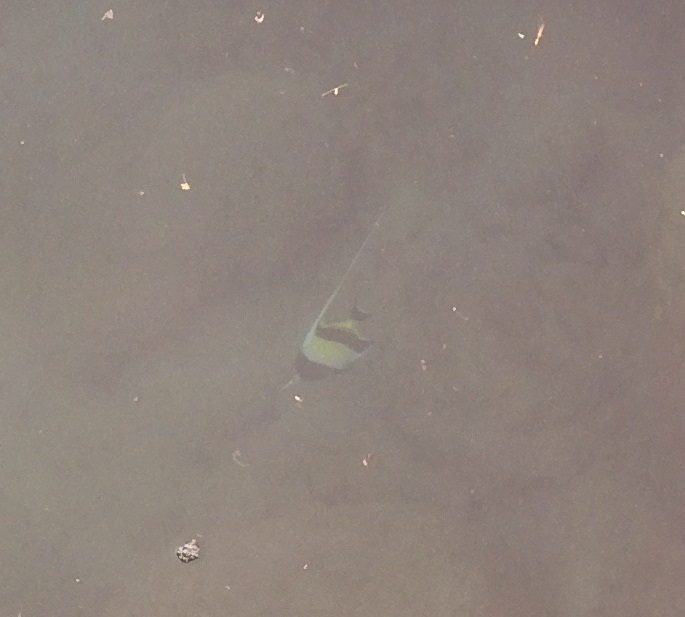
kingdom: Animalia
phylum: Chordata
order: Perciformes
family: Zanclidae
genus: Zanclus
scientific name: Zanclus cornutus
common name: Moorish idol
